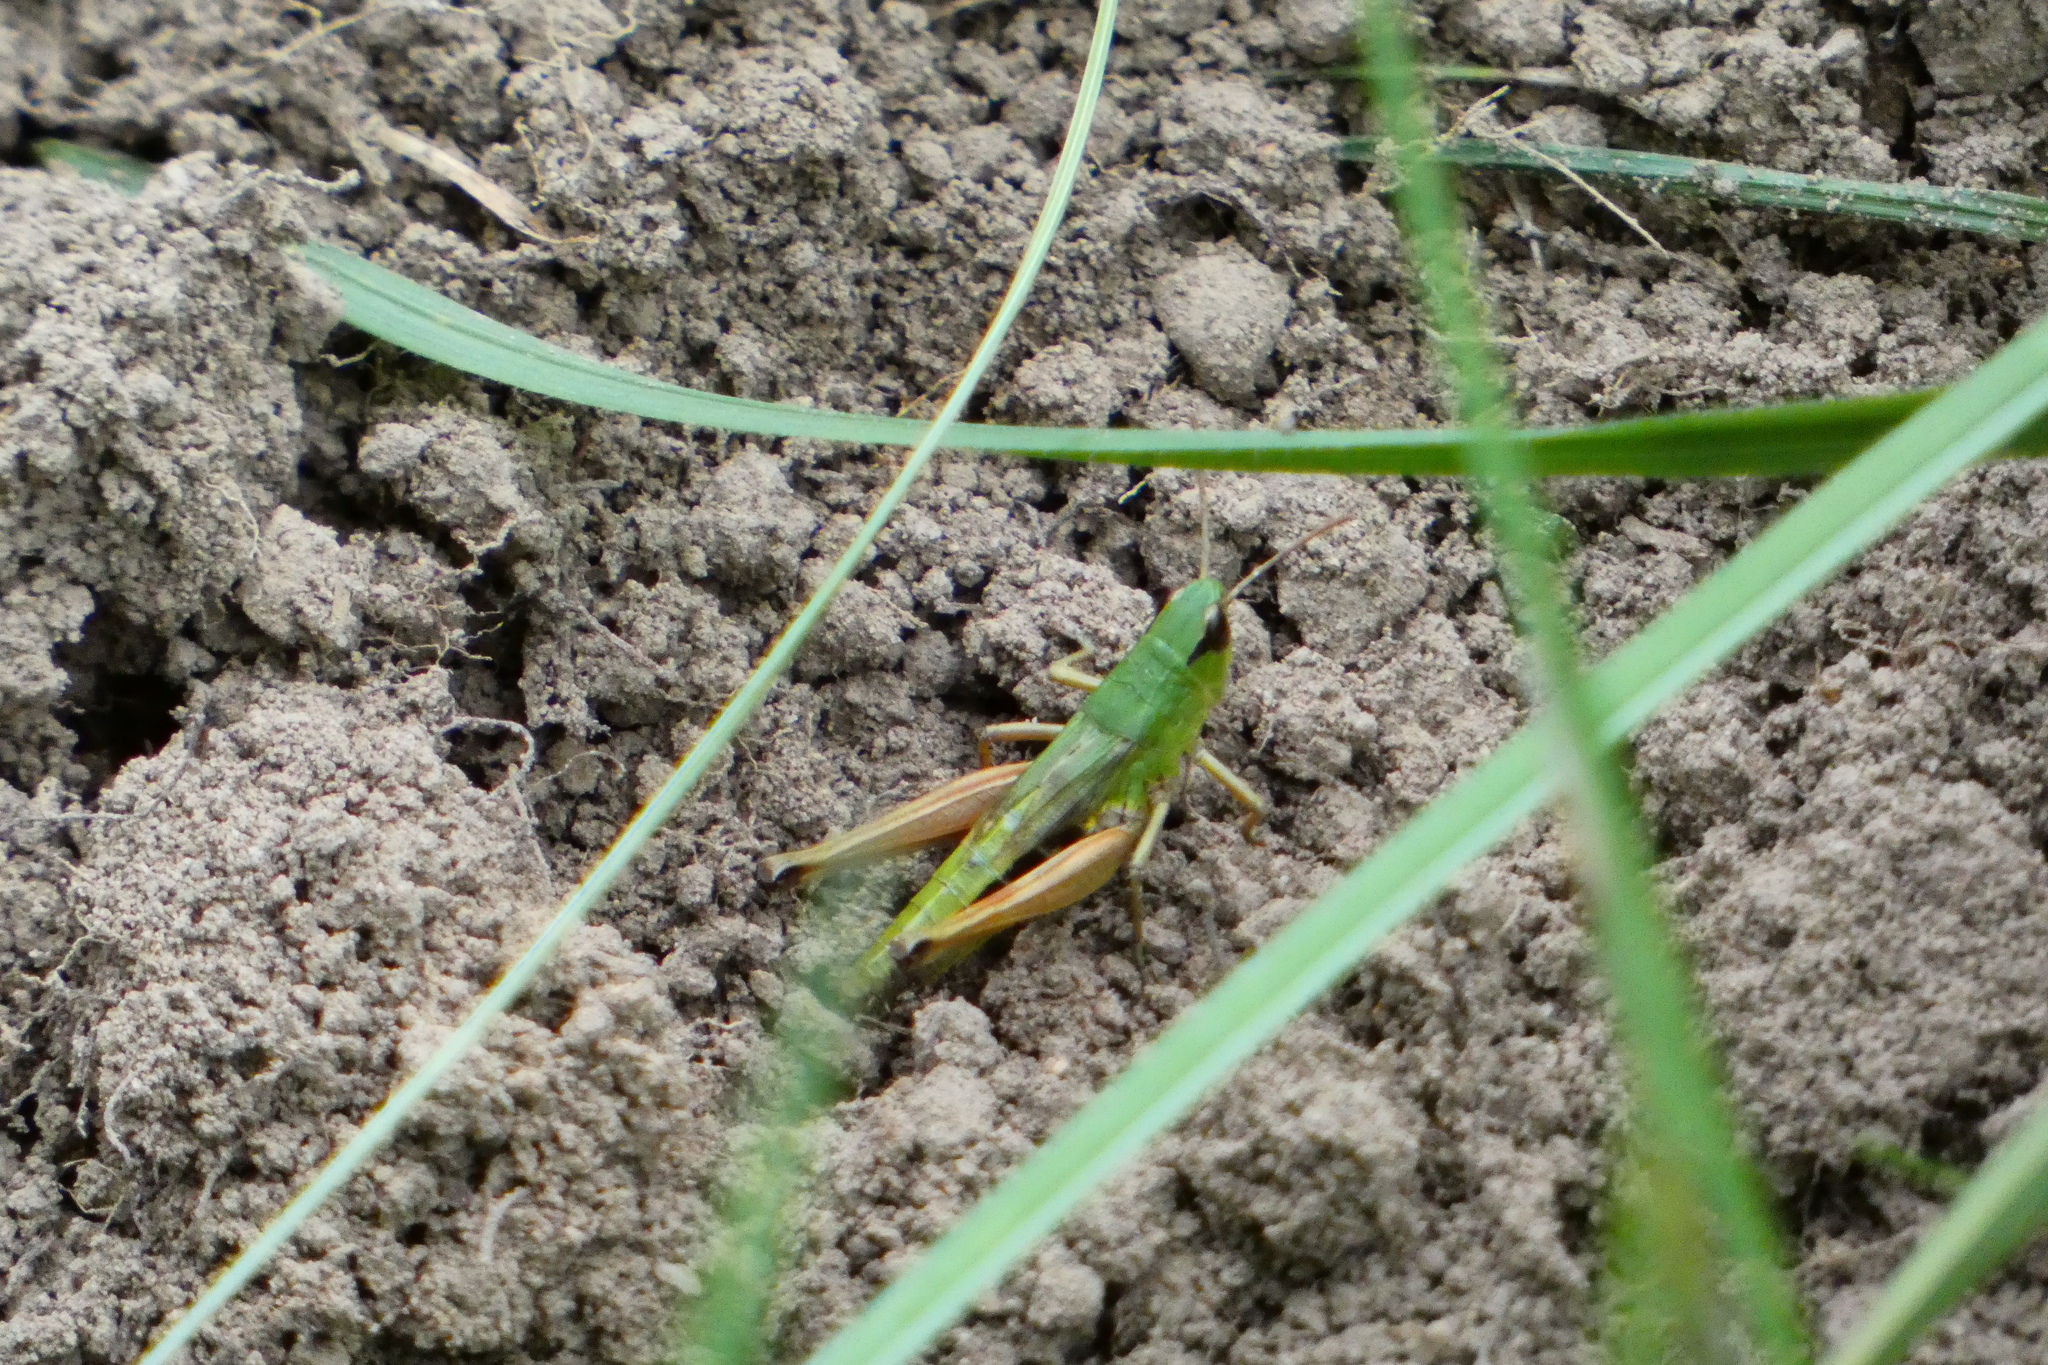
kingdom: Animalia
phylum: Arthropoda
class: Insecta
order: Orthoptera
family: Acrididae
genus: Pseudochorthippus
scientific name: Pseudochorthippus parallelus
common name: Meadow grasshopper
